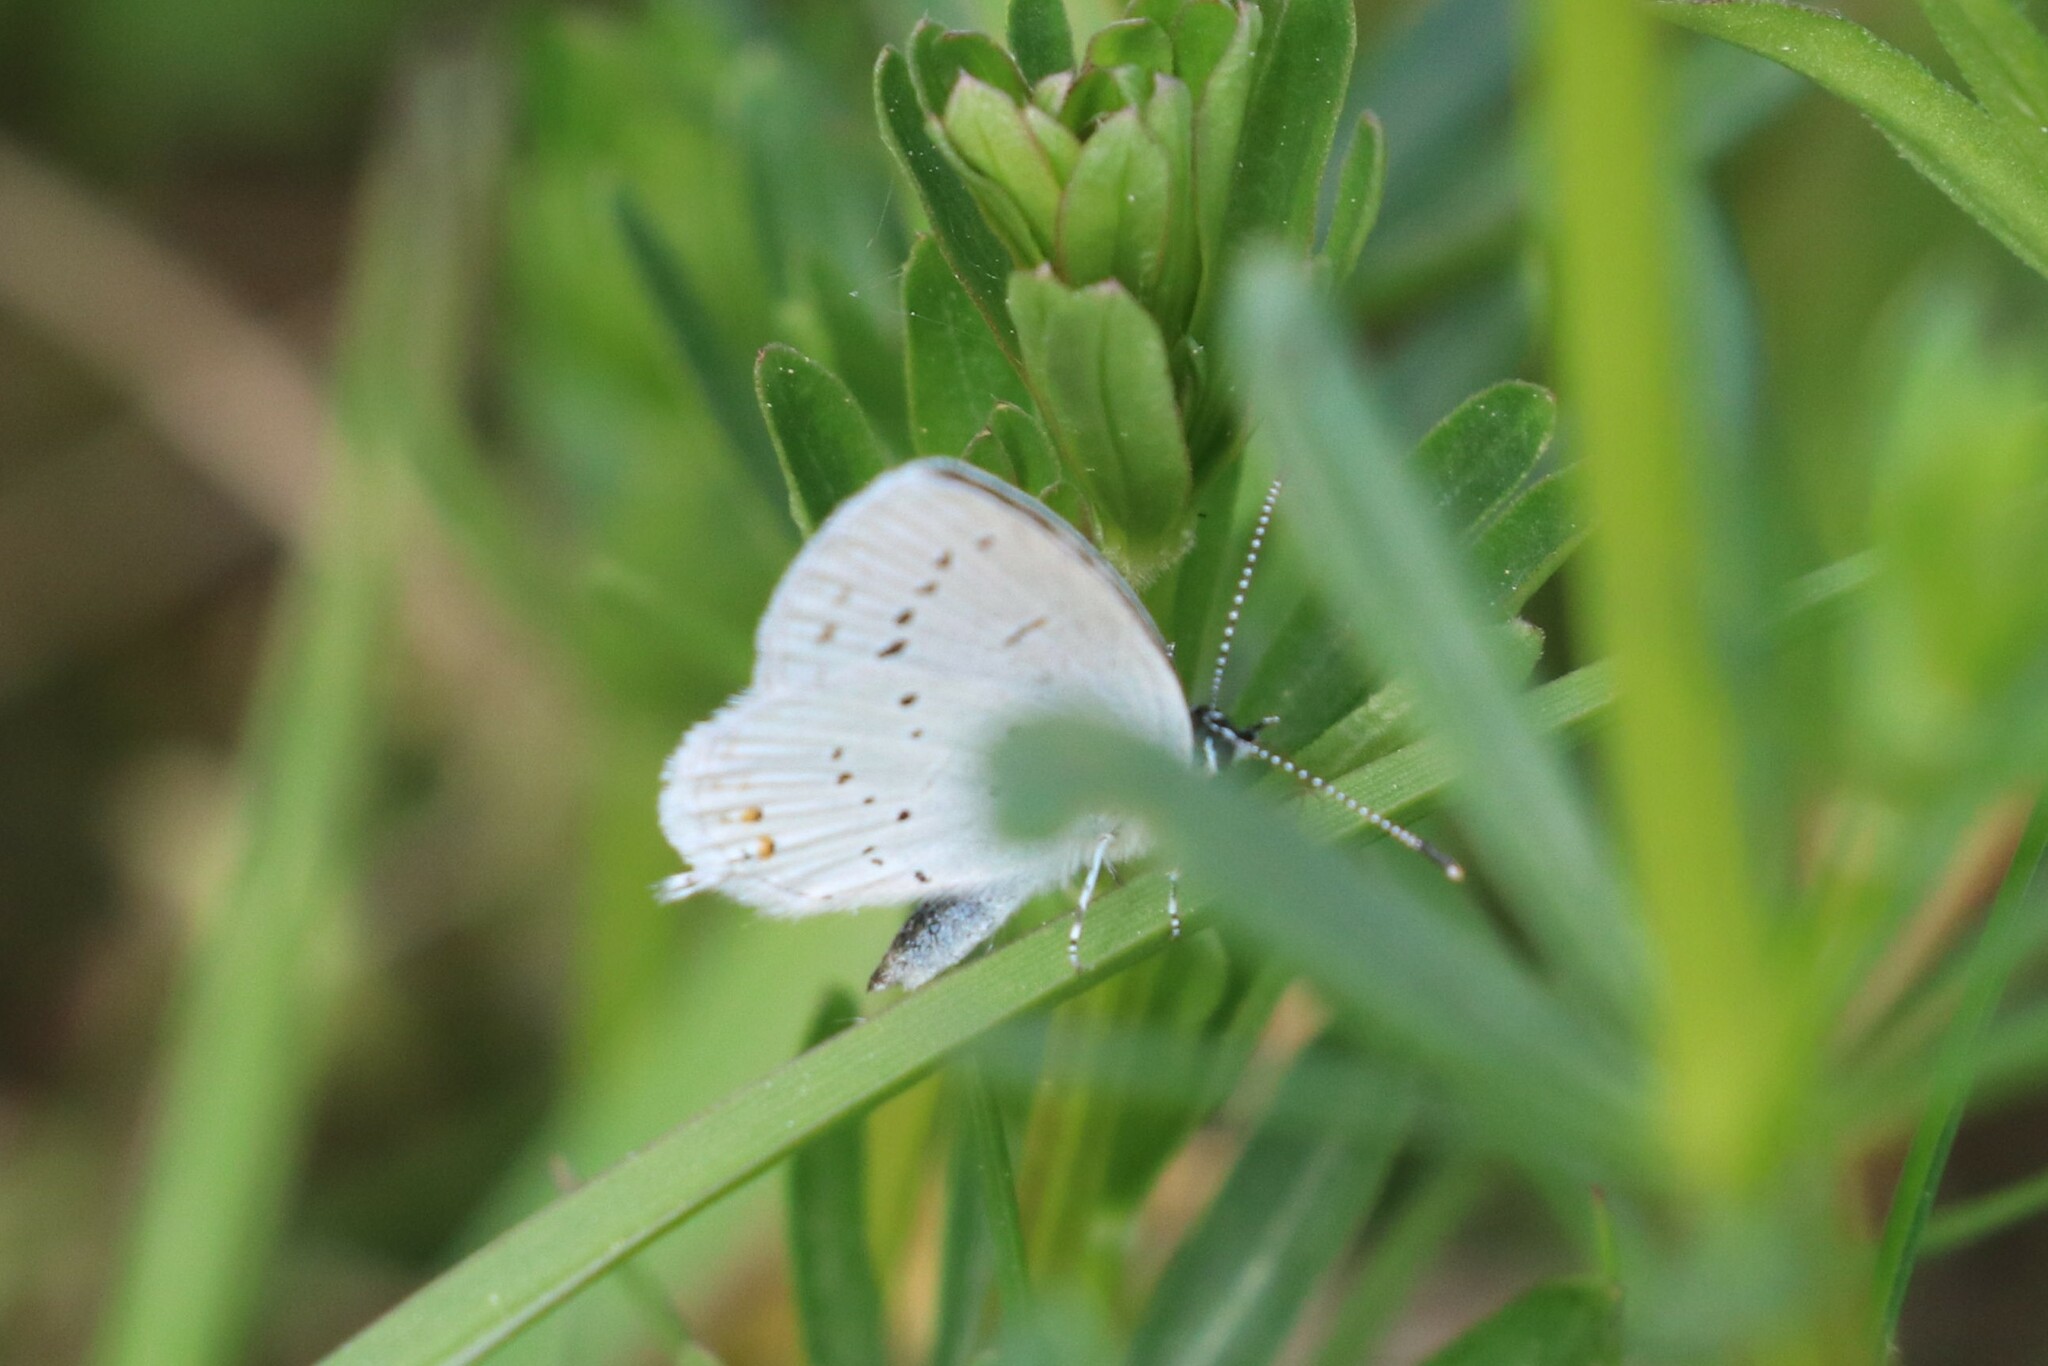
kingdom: Animalia
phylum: Arthropoda
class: Insecta
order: Lepidoptera
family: Lycaenidae
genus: Elkalyce
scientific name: Elkalyce argiades
